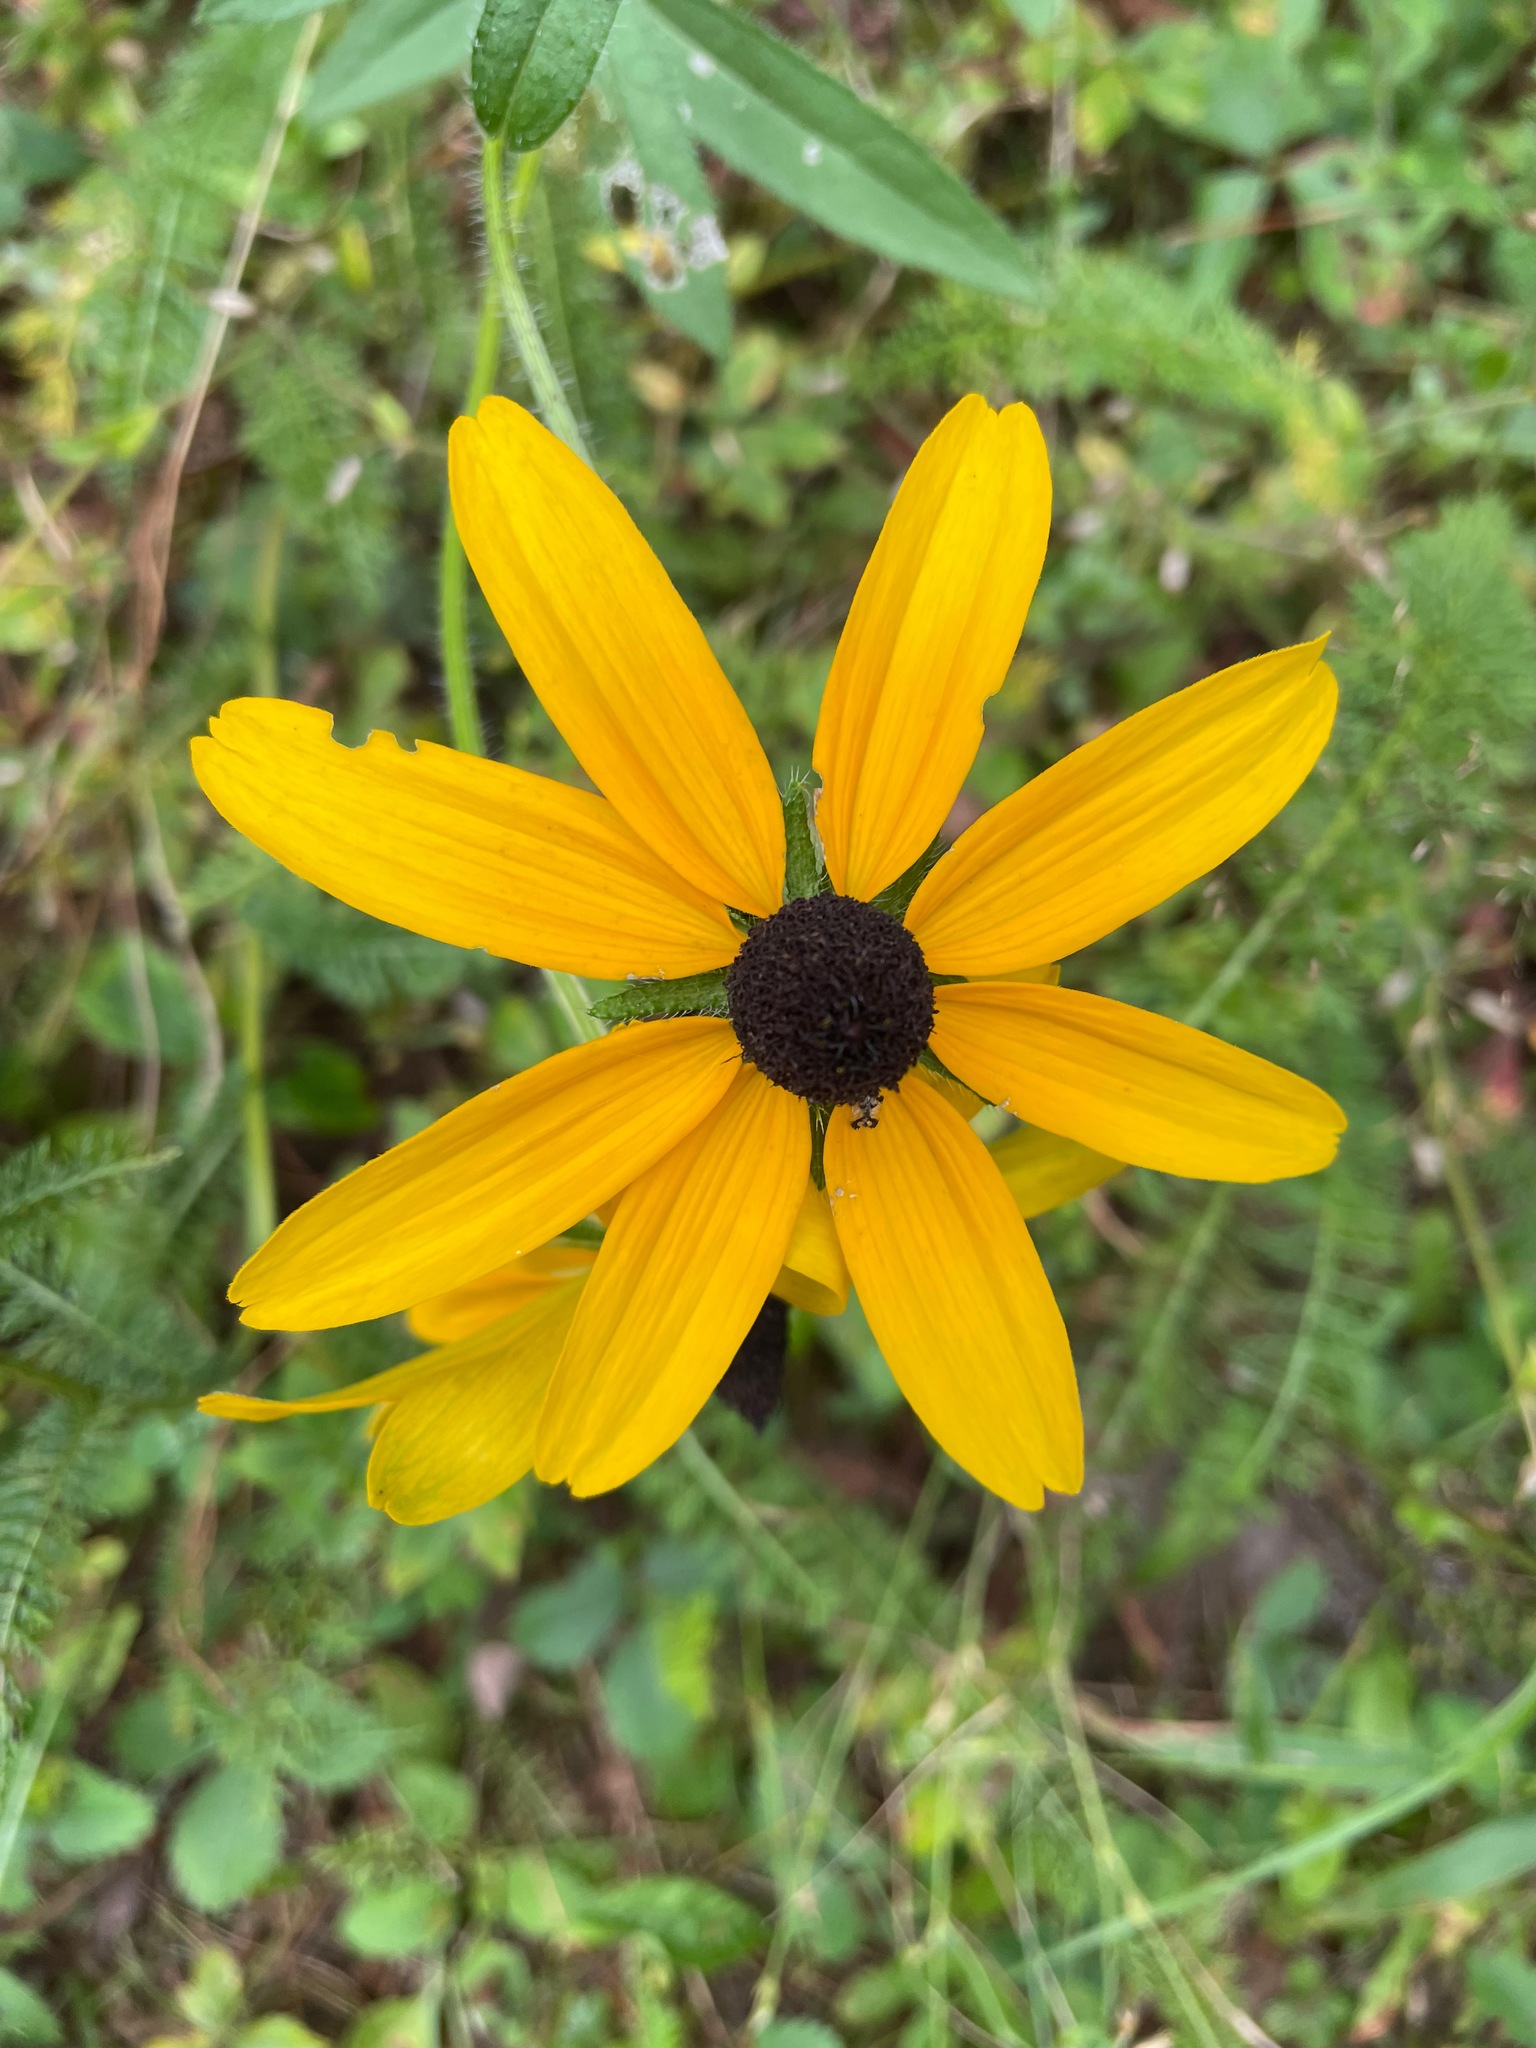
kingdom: Plantae
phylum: Tracheophyta
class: Magnoliopsida
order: Asterales
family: Asteraceae
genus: Rudbeckia
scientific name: Rudbeckia hirta
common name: Black-eyed-susan
